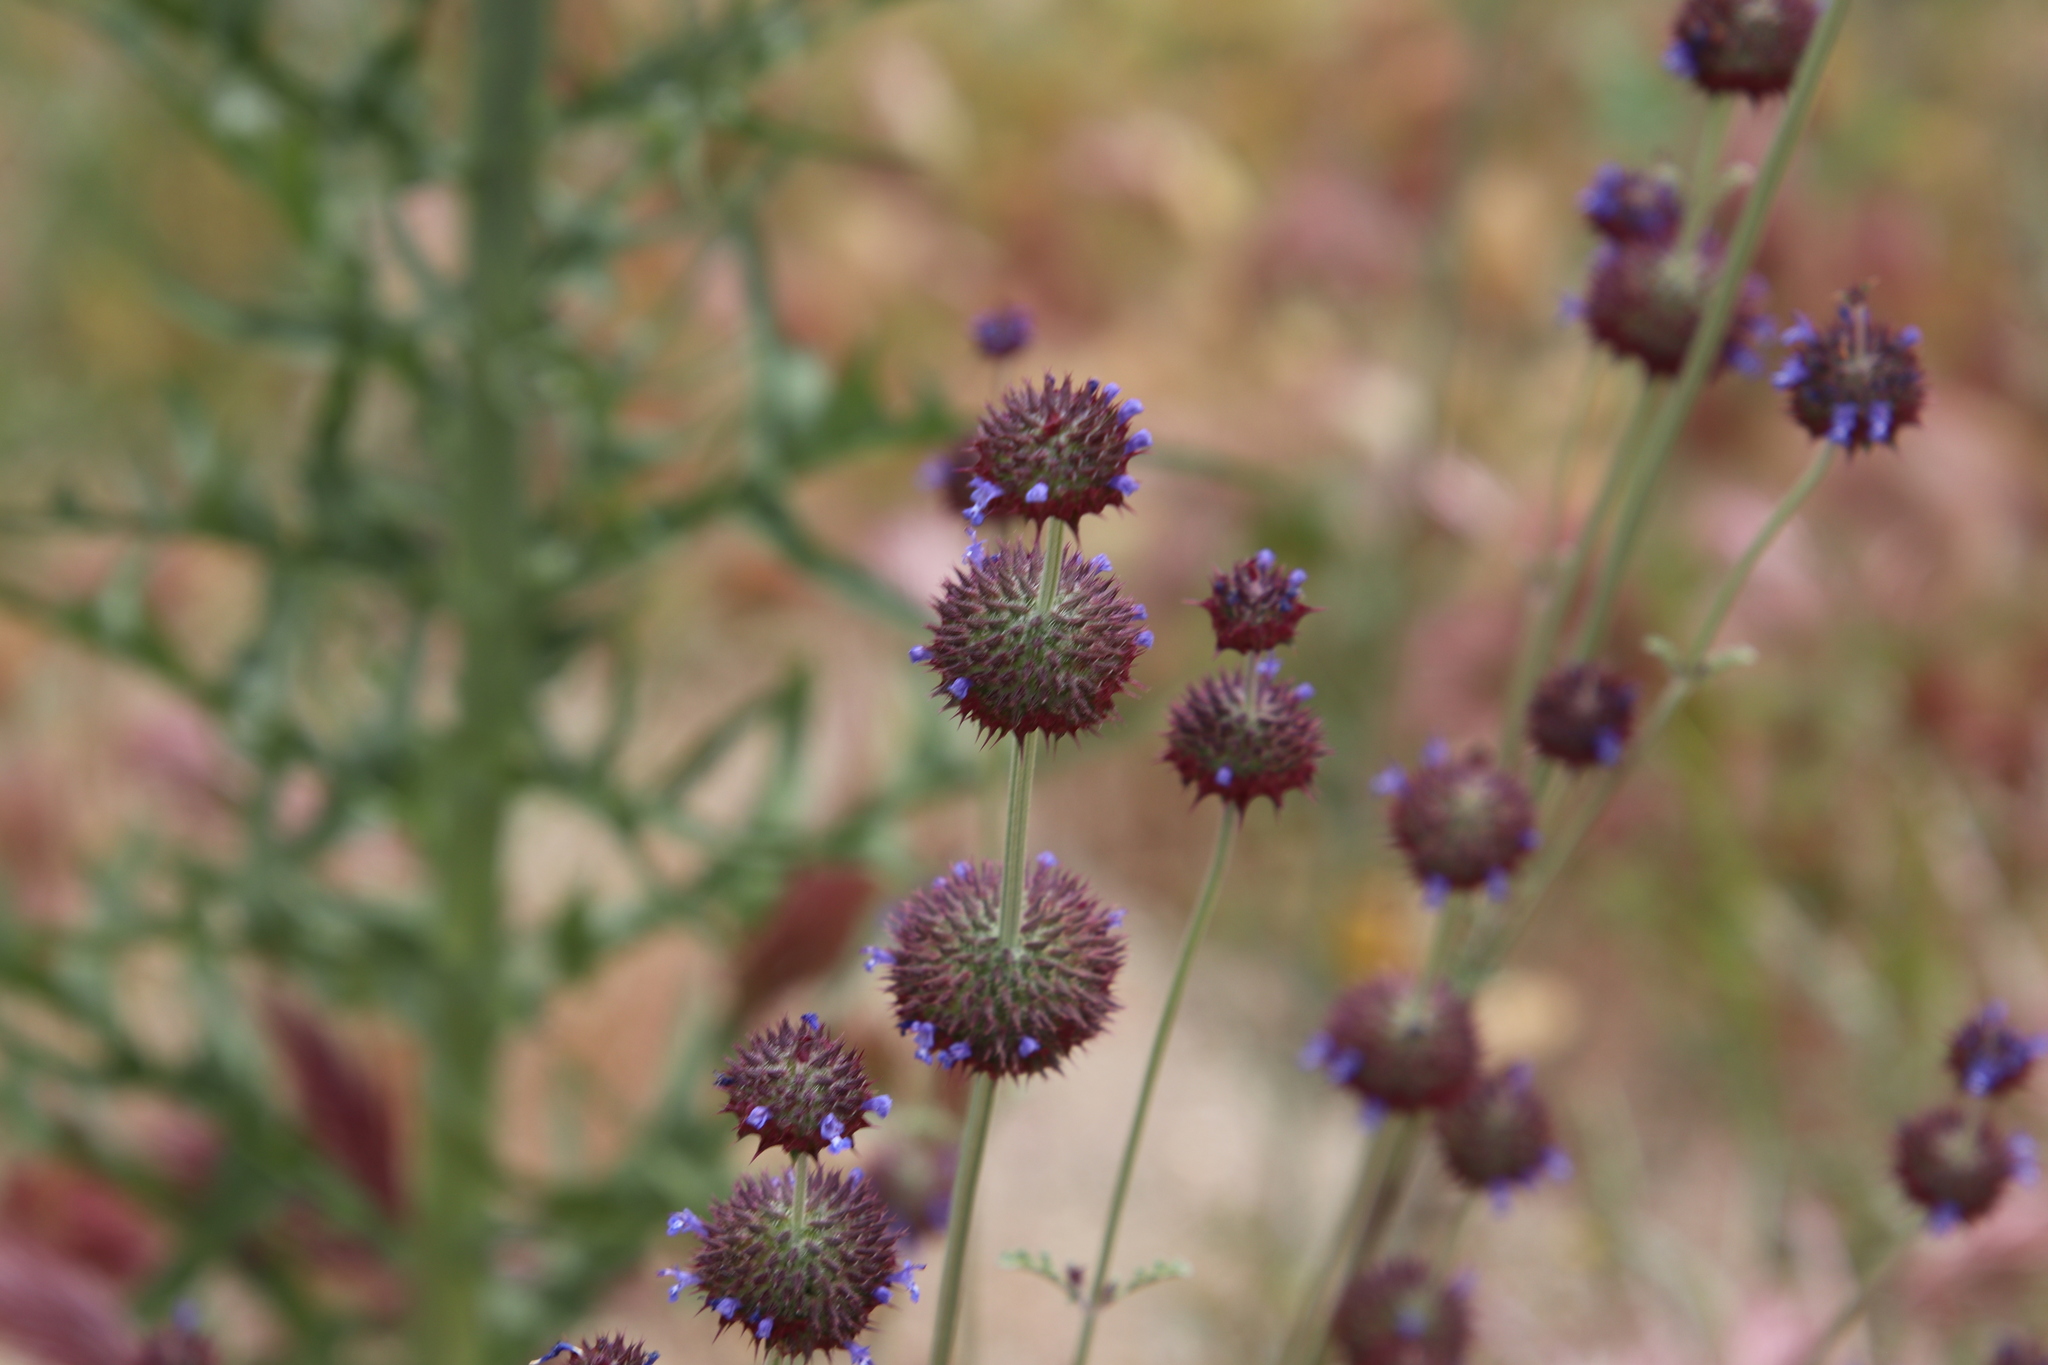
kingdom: Plantae
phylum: Tracheophyta
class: Magnoliopsida
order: Lamiales
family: Lamiaceae
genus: Salvia
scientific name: Salvia columbariae
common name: Chia
